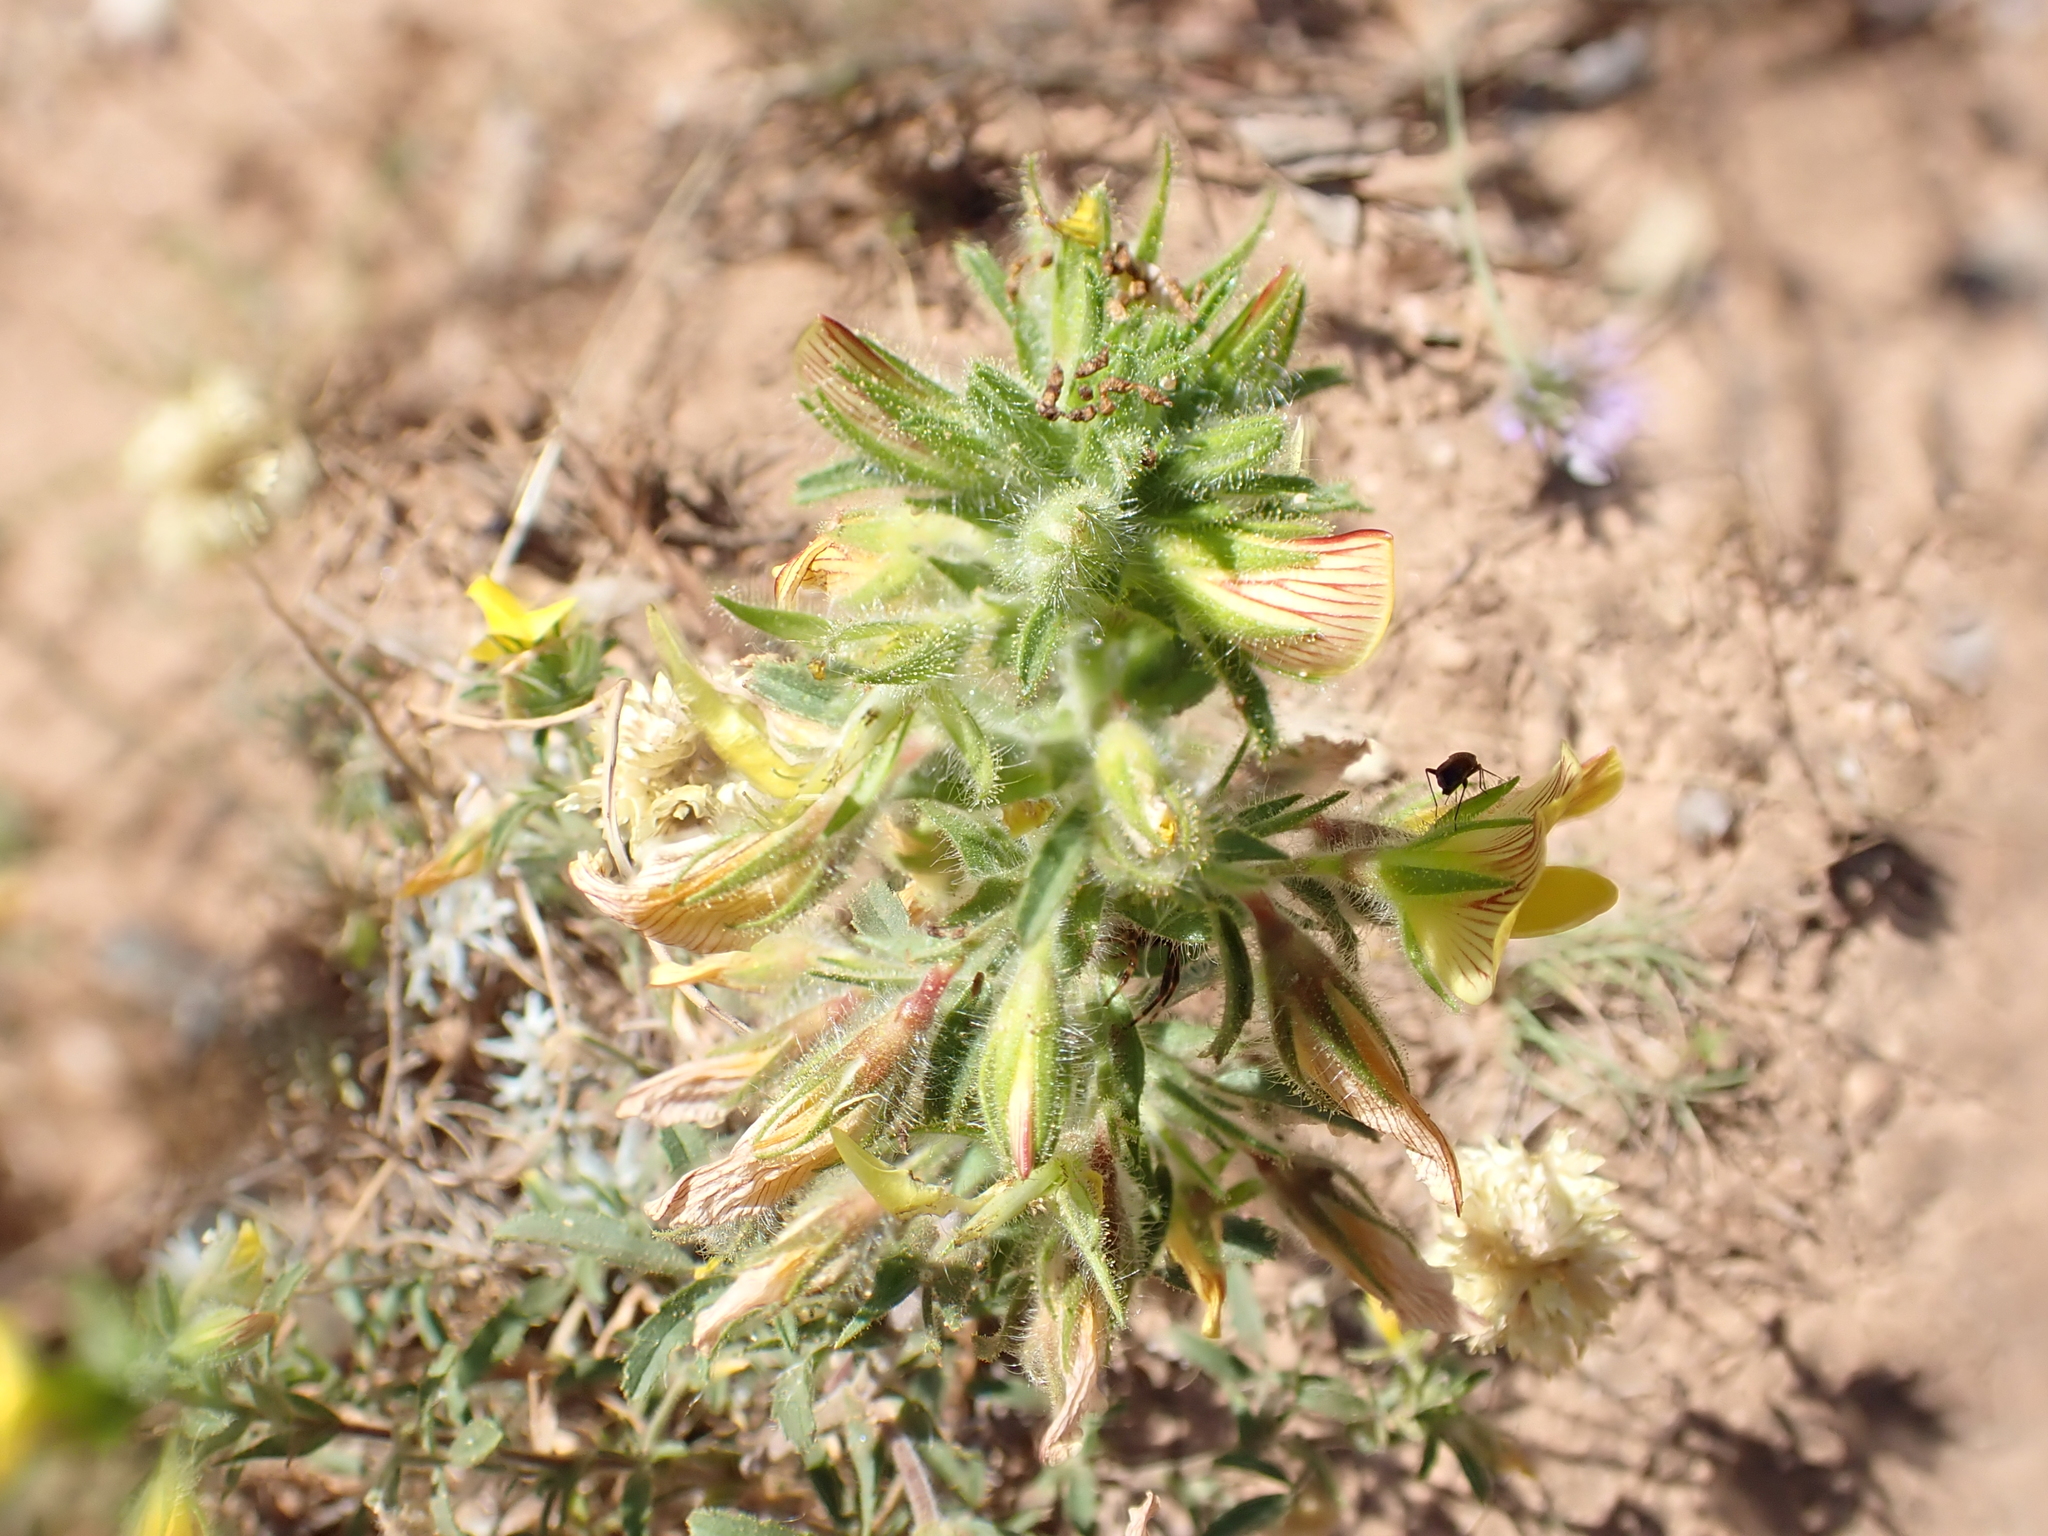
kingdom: Plantae
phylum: Tracheophyta
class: Magnoliopsida
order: Fabales
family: Fabaceae
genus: Ononis
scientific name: Ononis natrix
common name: Yellow restharrow
